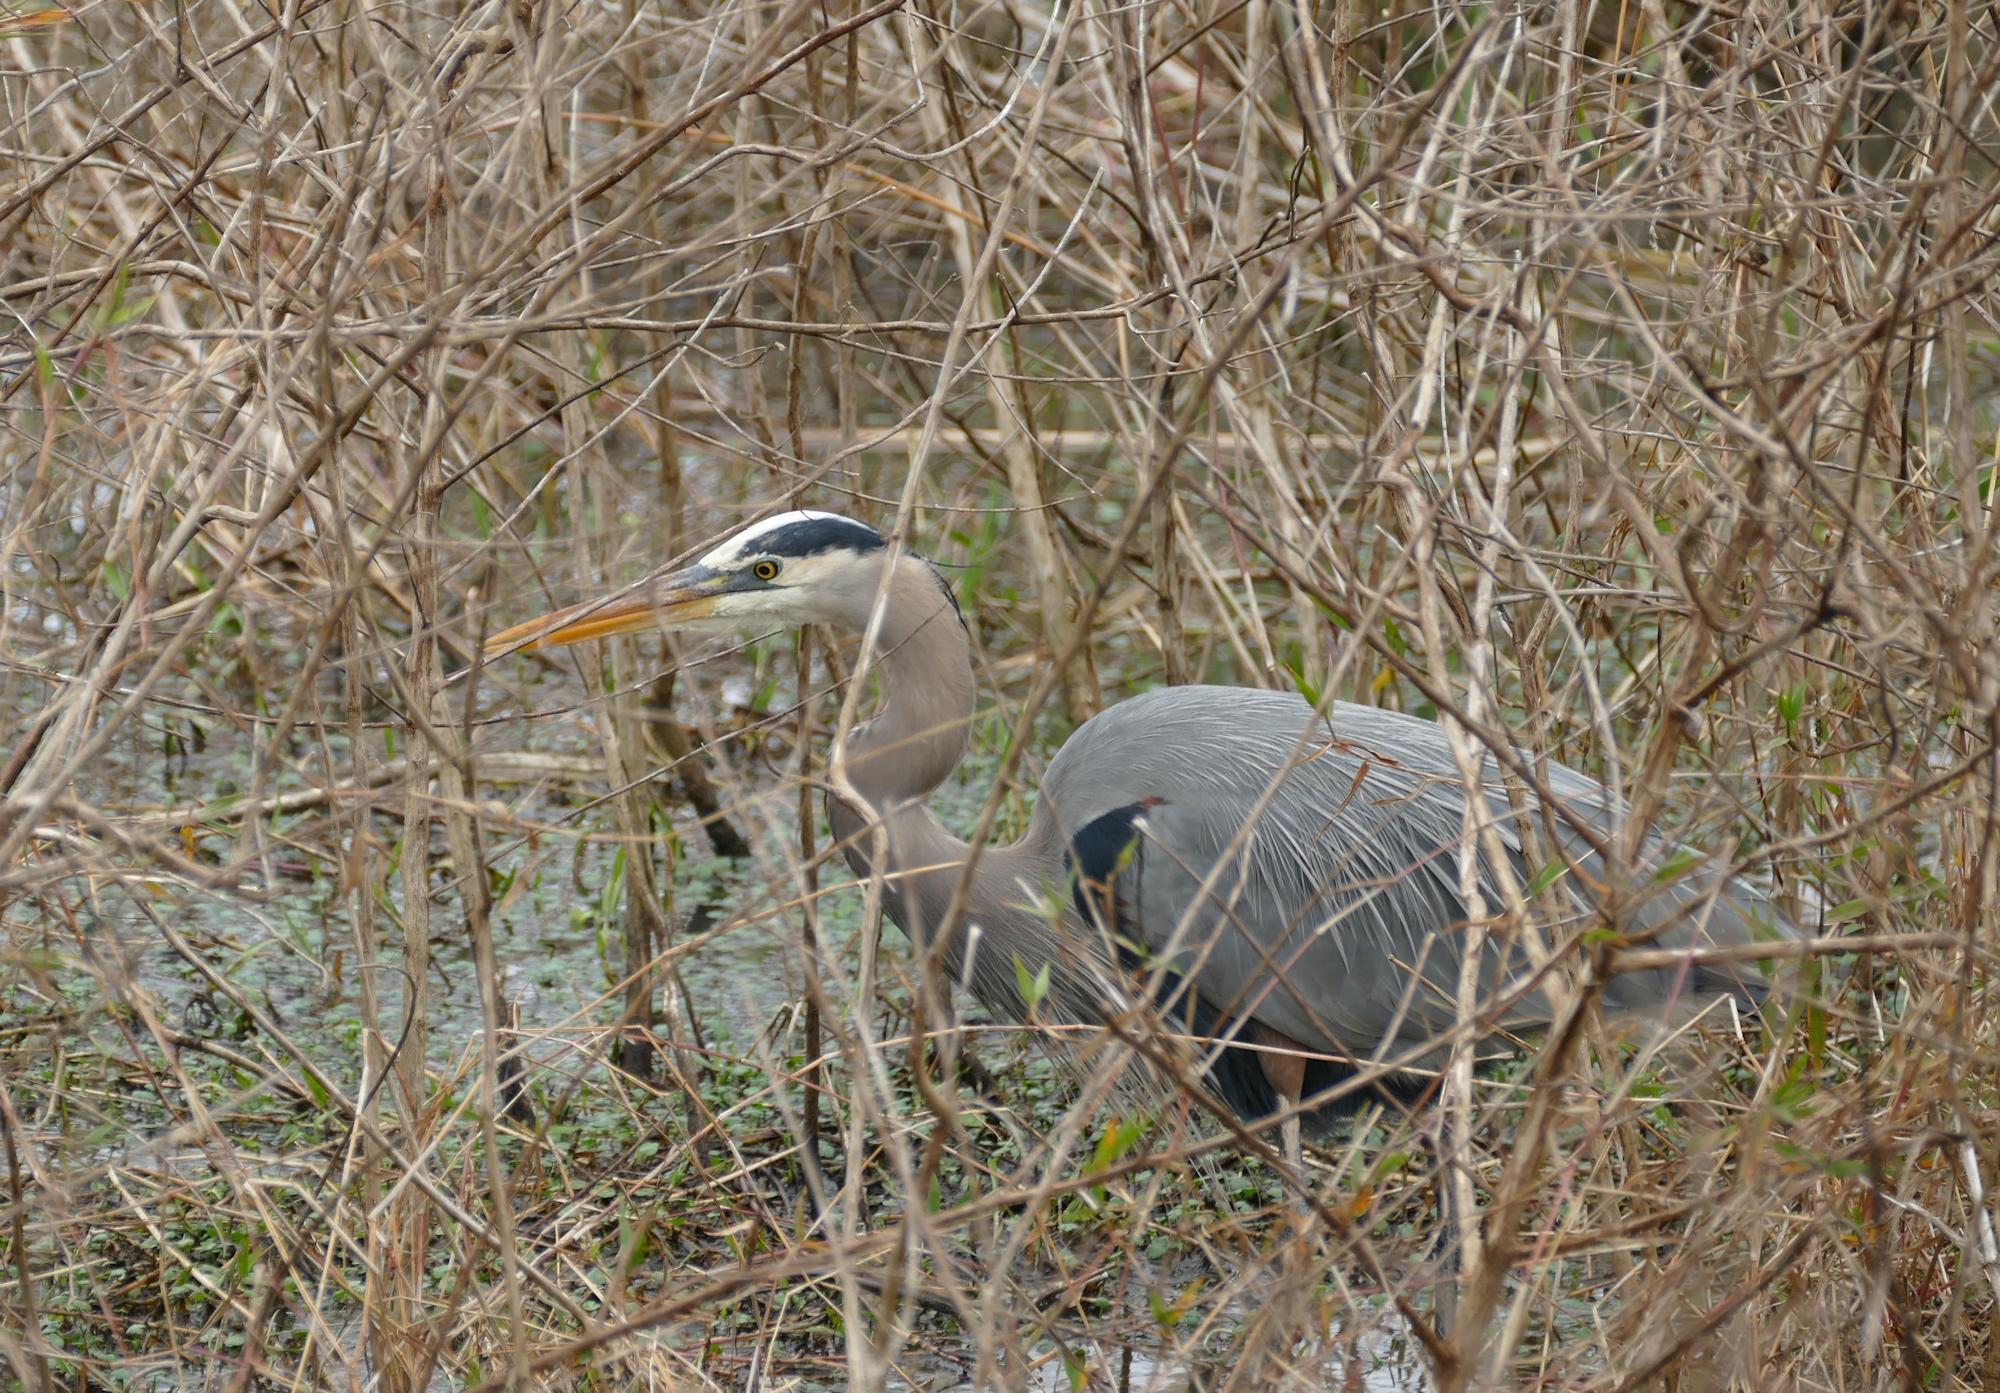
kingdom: Animalia
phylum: Chordata
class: Aves
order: Pelecaniformes
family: Ardeidae
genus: Ardea
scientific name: Ardea herodias
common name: Great blue heron
